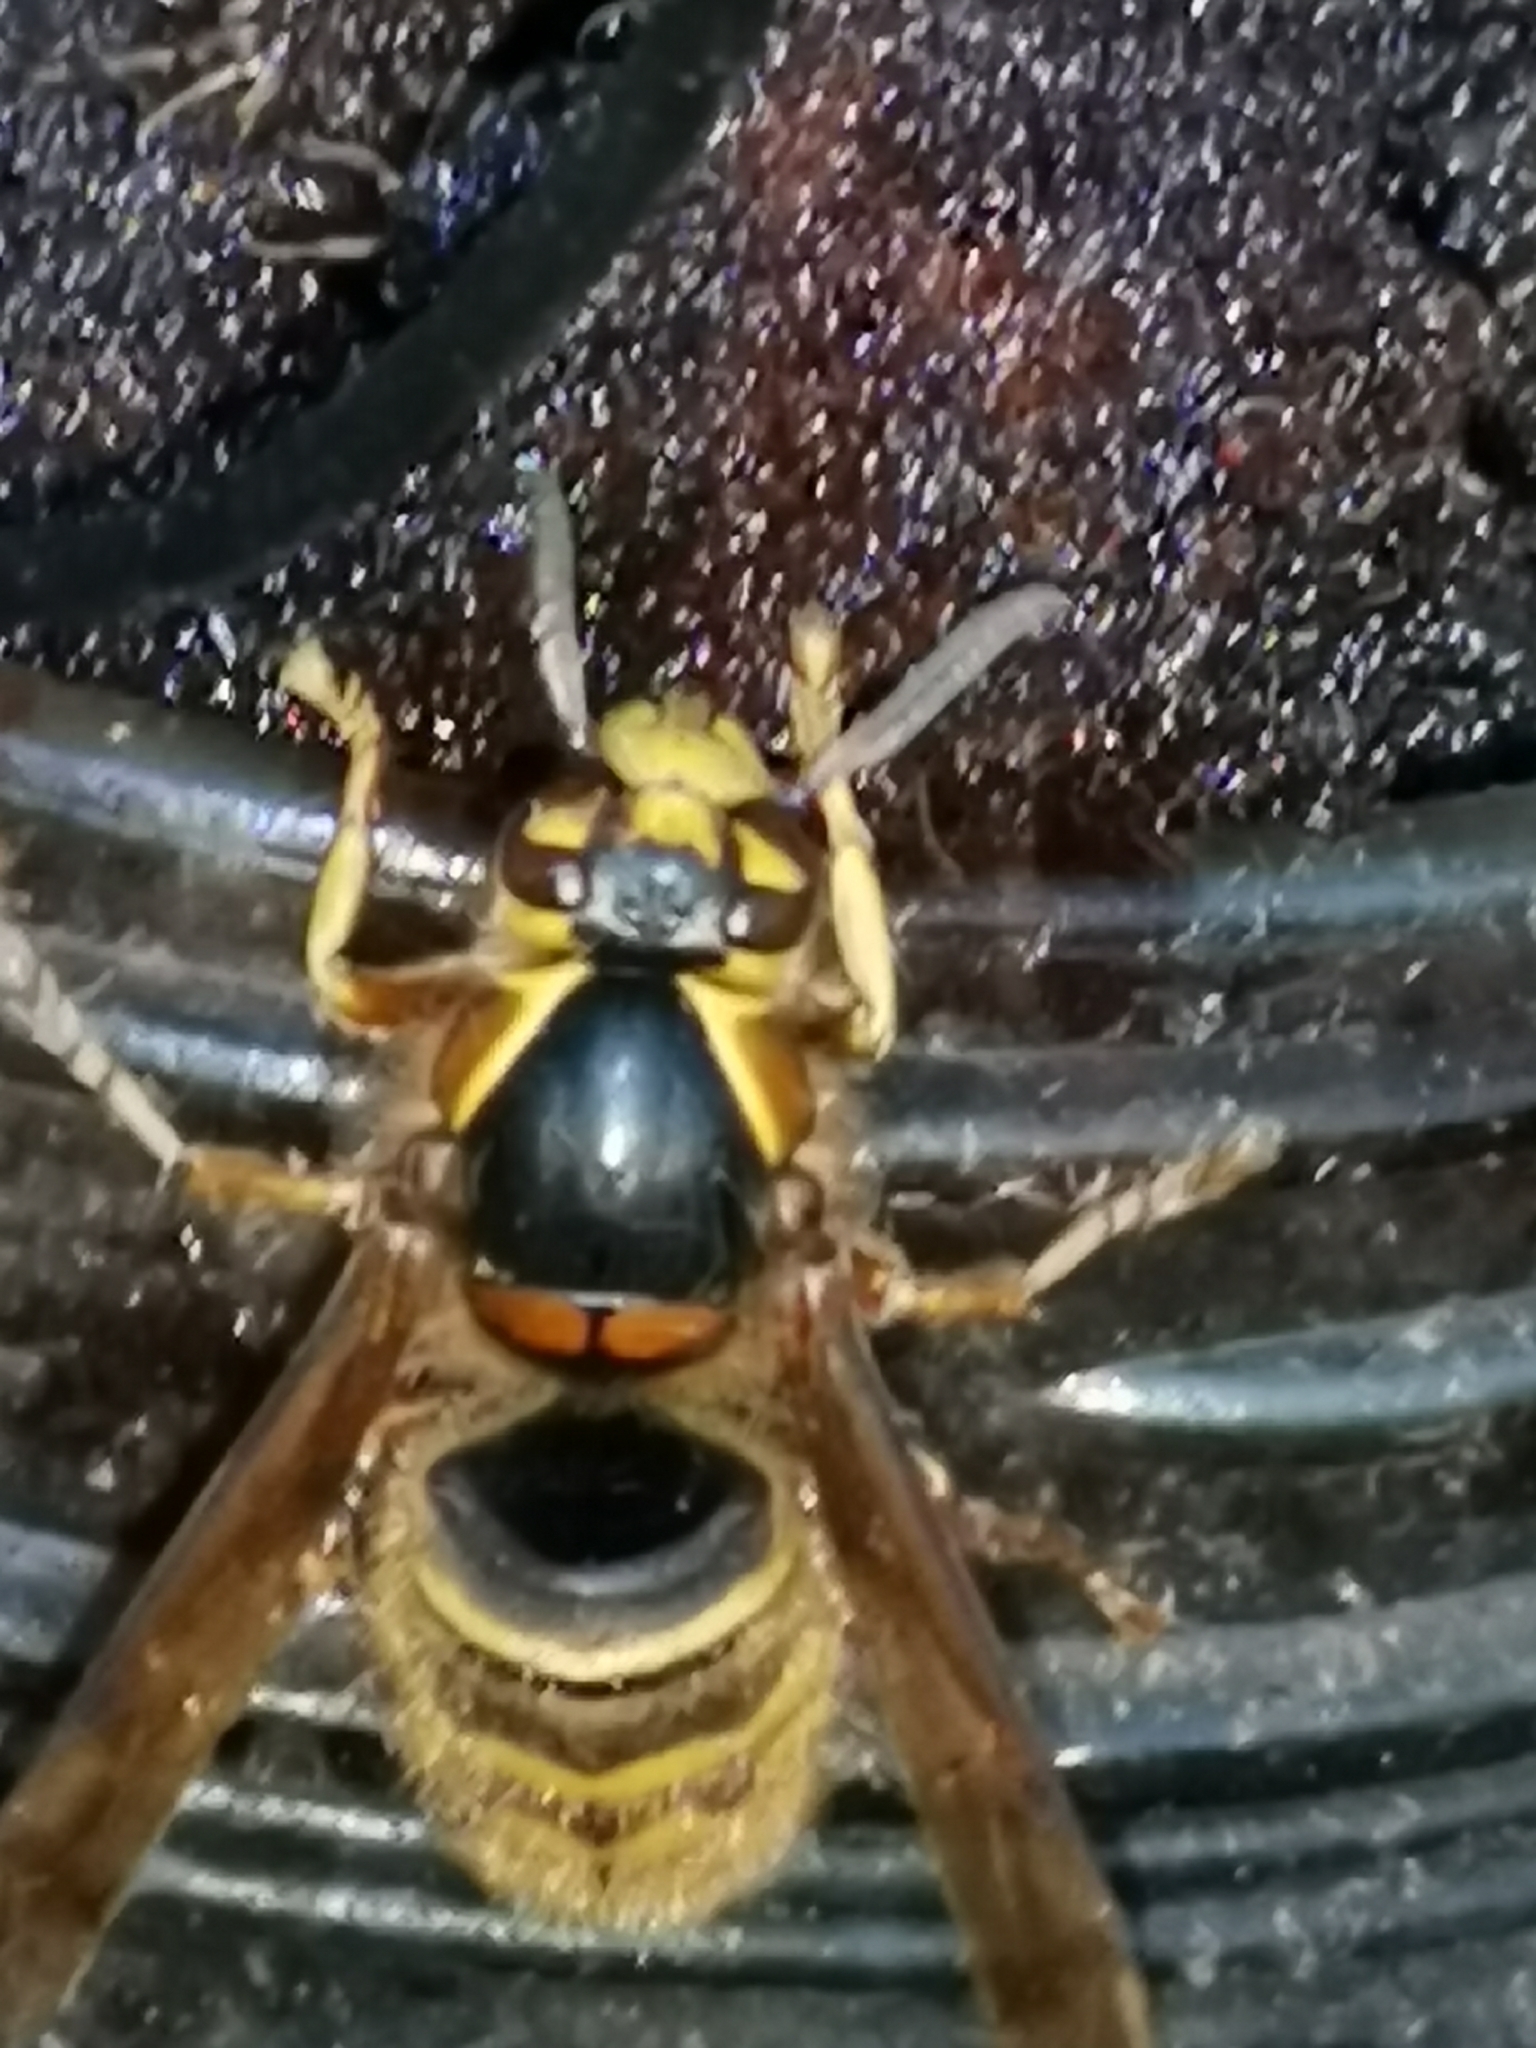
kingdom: Animalia
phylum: Arthropoda
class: Insecta
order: Hymenoptera
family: Vespidae
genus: Dolichovespula
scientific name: Dolichovespula media
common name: Median wasp
